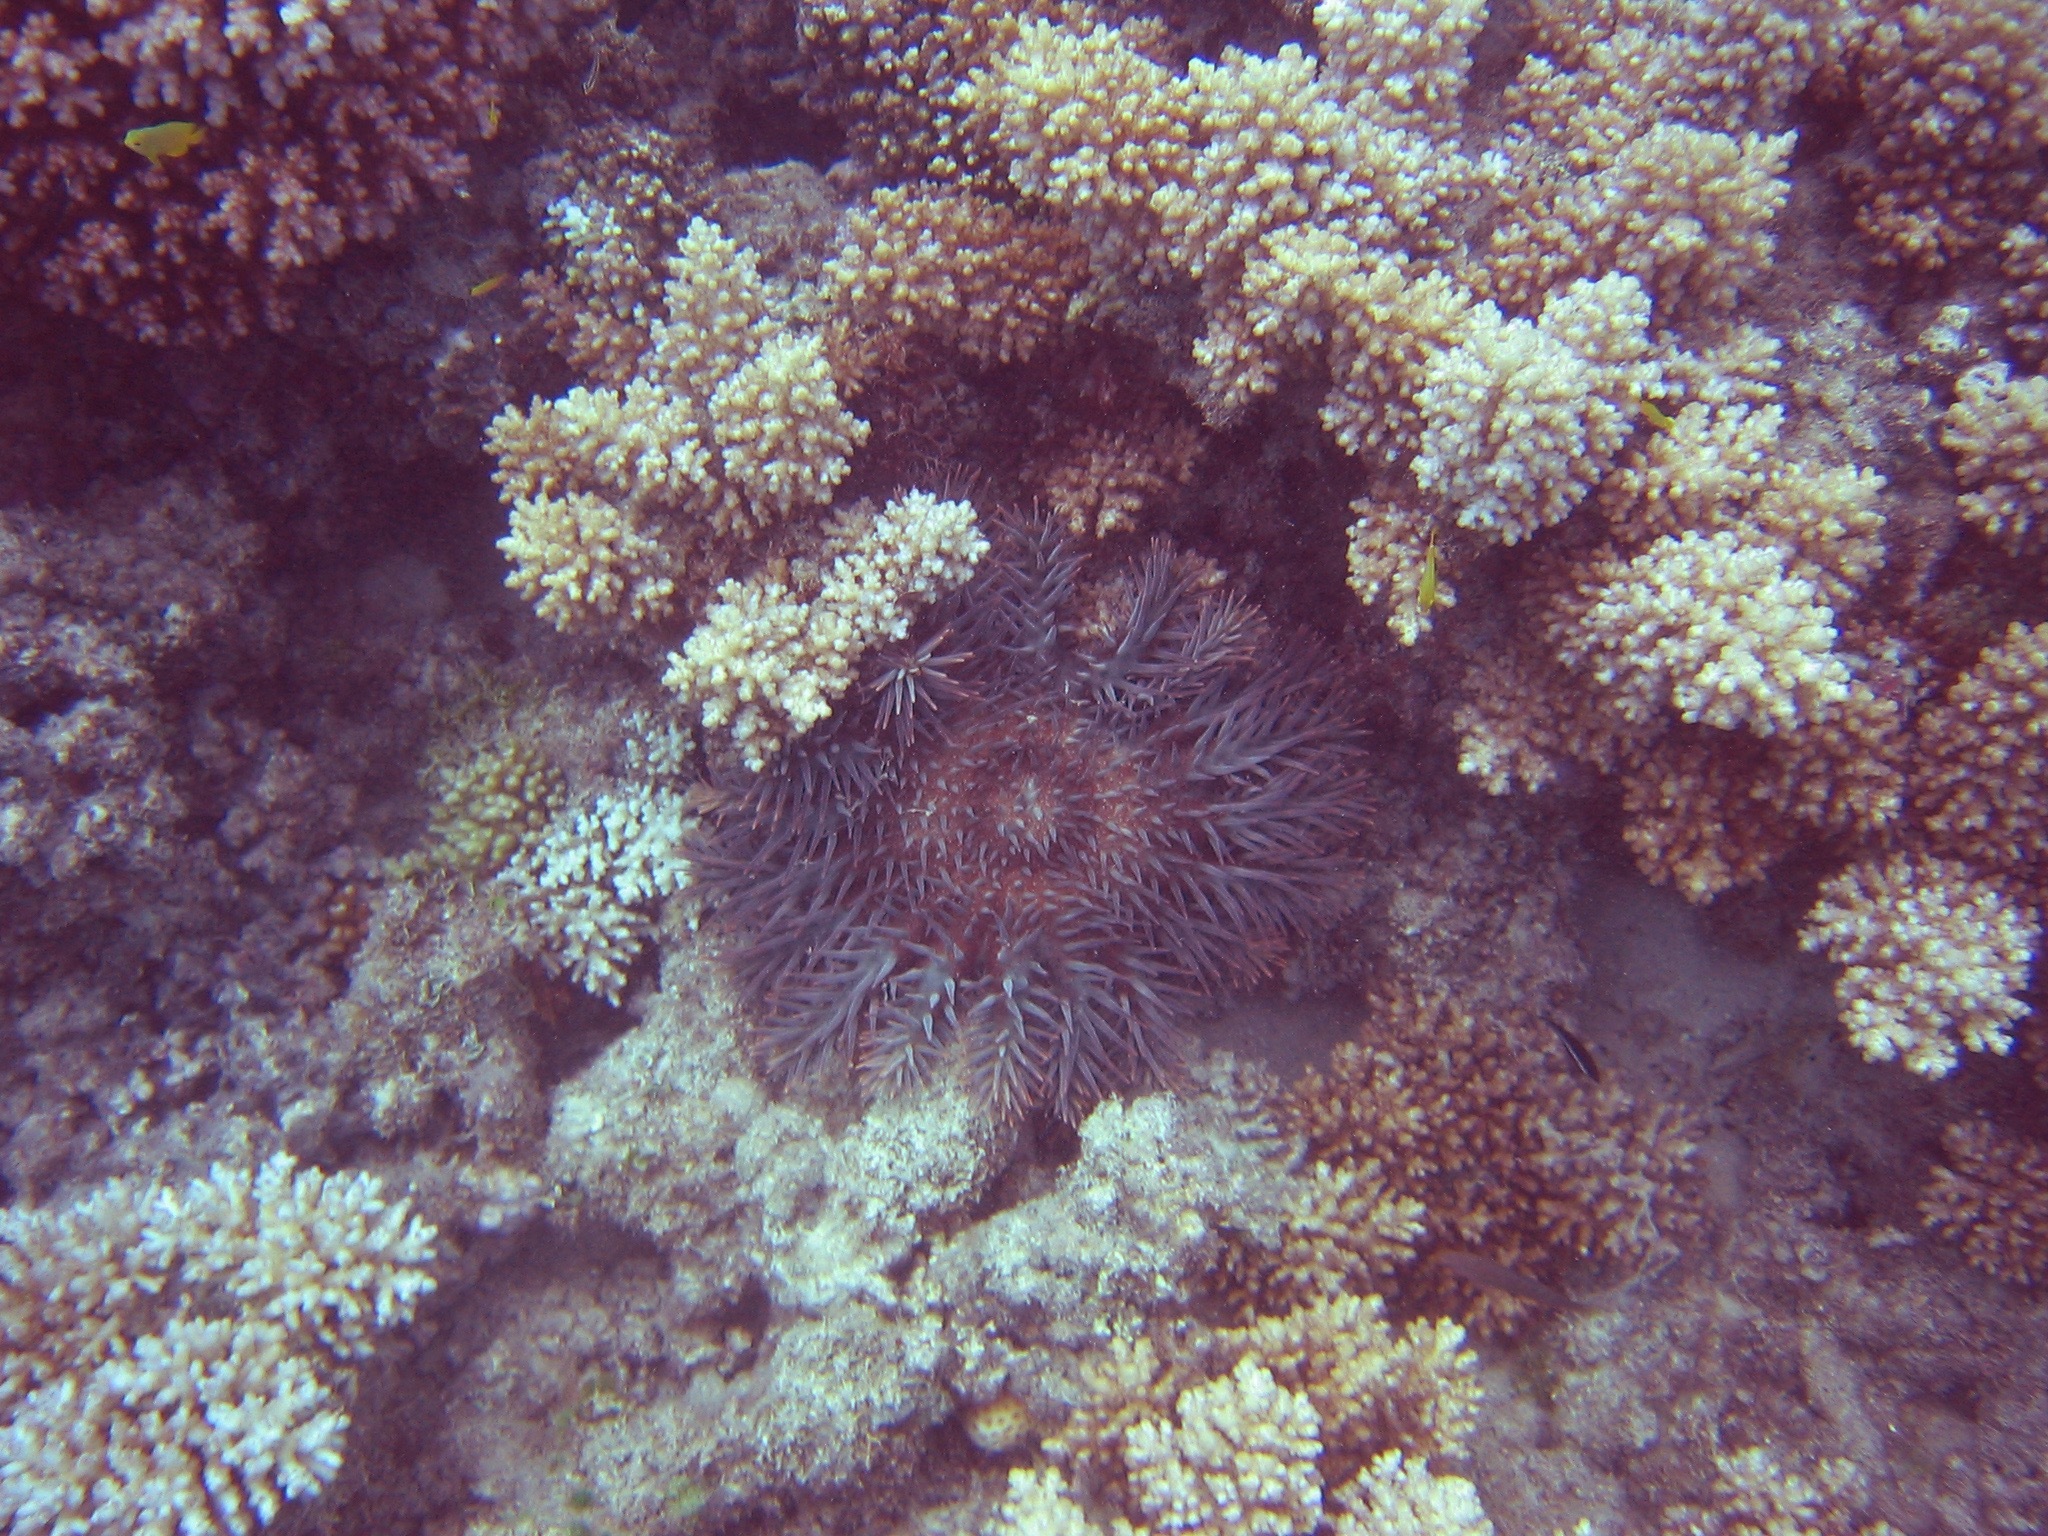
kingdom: Animalia
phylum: Echinodermata
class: Asteroidea
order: Valvatida
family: Acanthasteridae
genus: Acanthaster
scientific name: Acanthaster planci
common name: Crown-of-thorns
